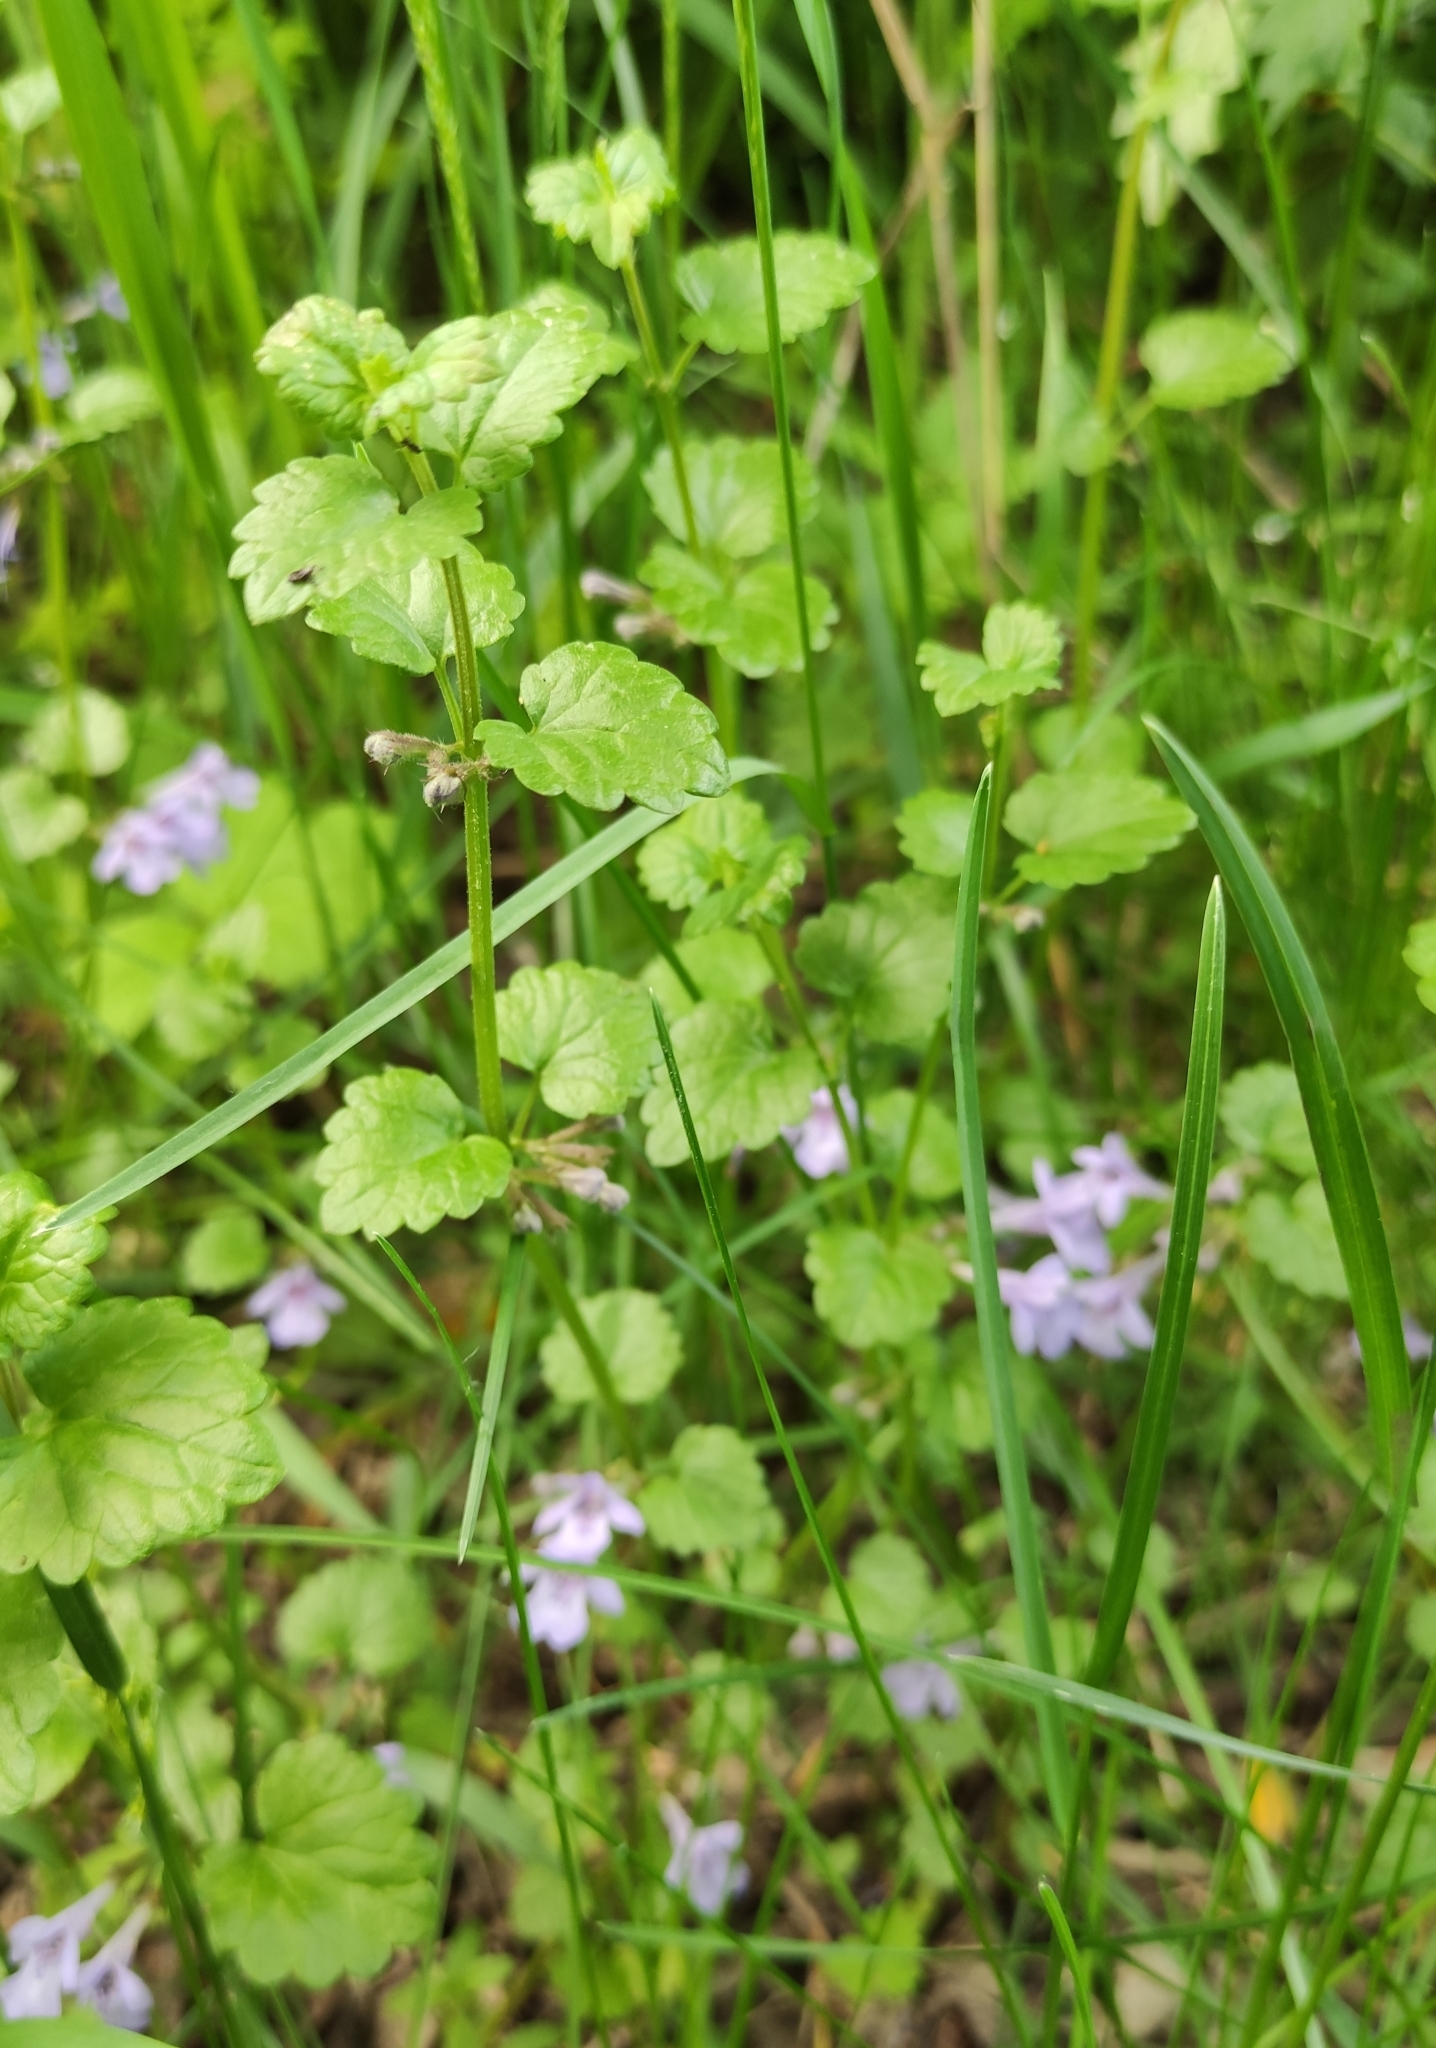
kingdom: Plantae
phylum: Tracheophyta
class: Magnoliopsida
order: Lamiales
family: Lamiaceae
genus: Glechoma
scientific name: Glechoma hederacea
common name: Ground ivy
